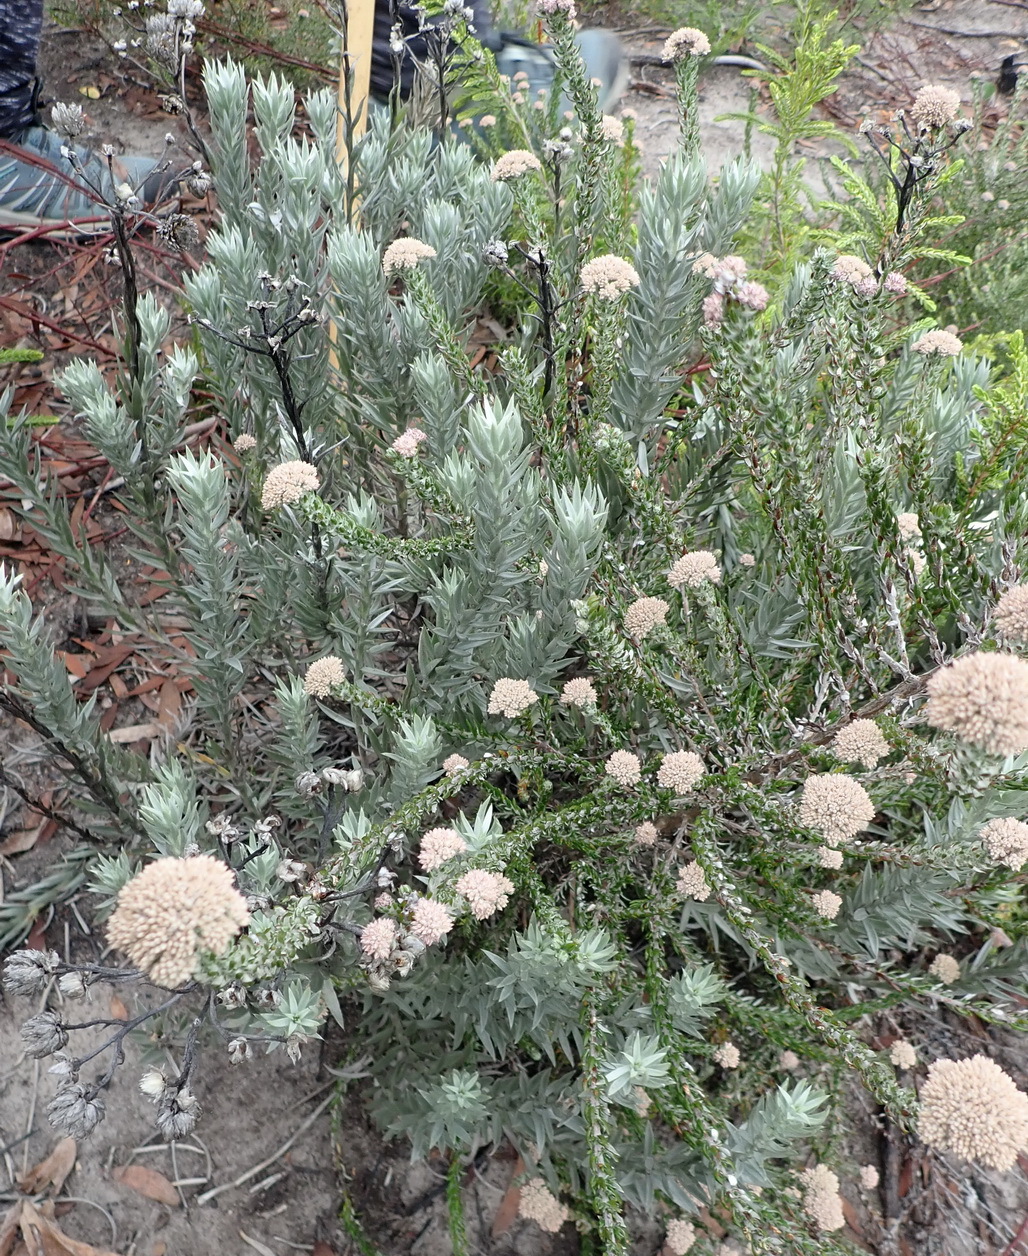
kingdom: Plantae
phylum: Tracheophyta
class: Magnoliopsida
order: Asterales
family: Asteraceae
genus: Achyranthemum
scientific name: Achyranthemum paniculatum
